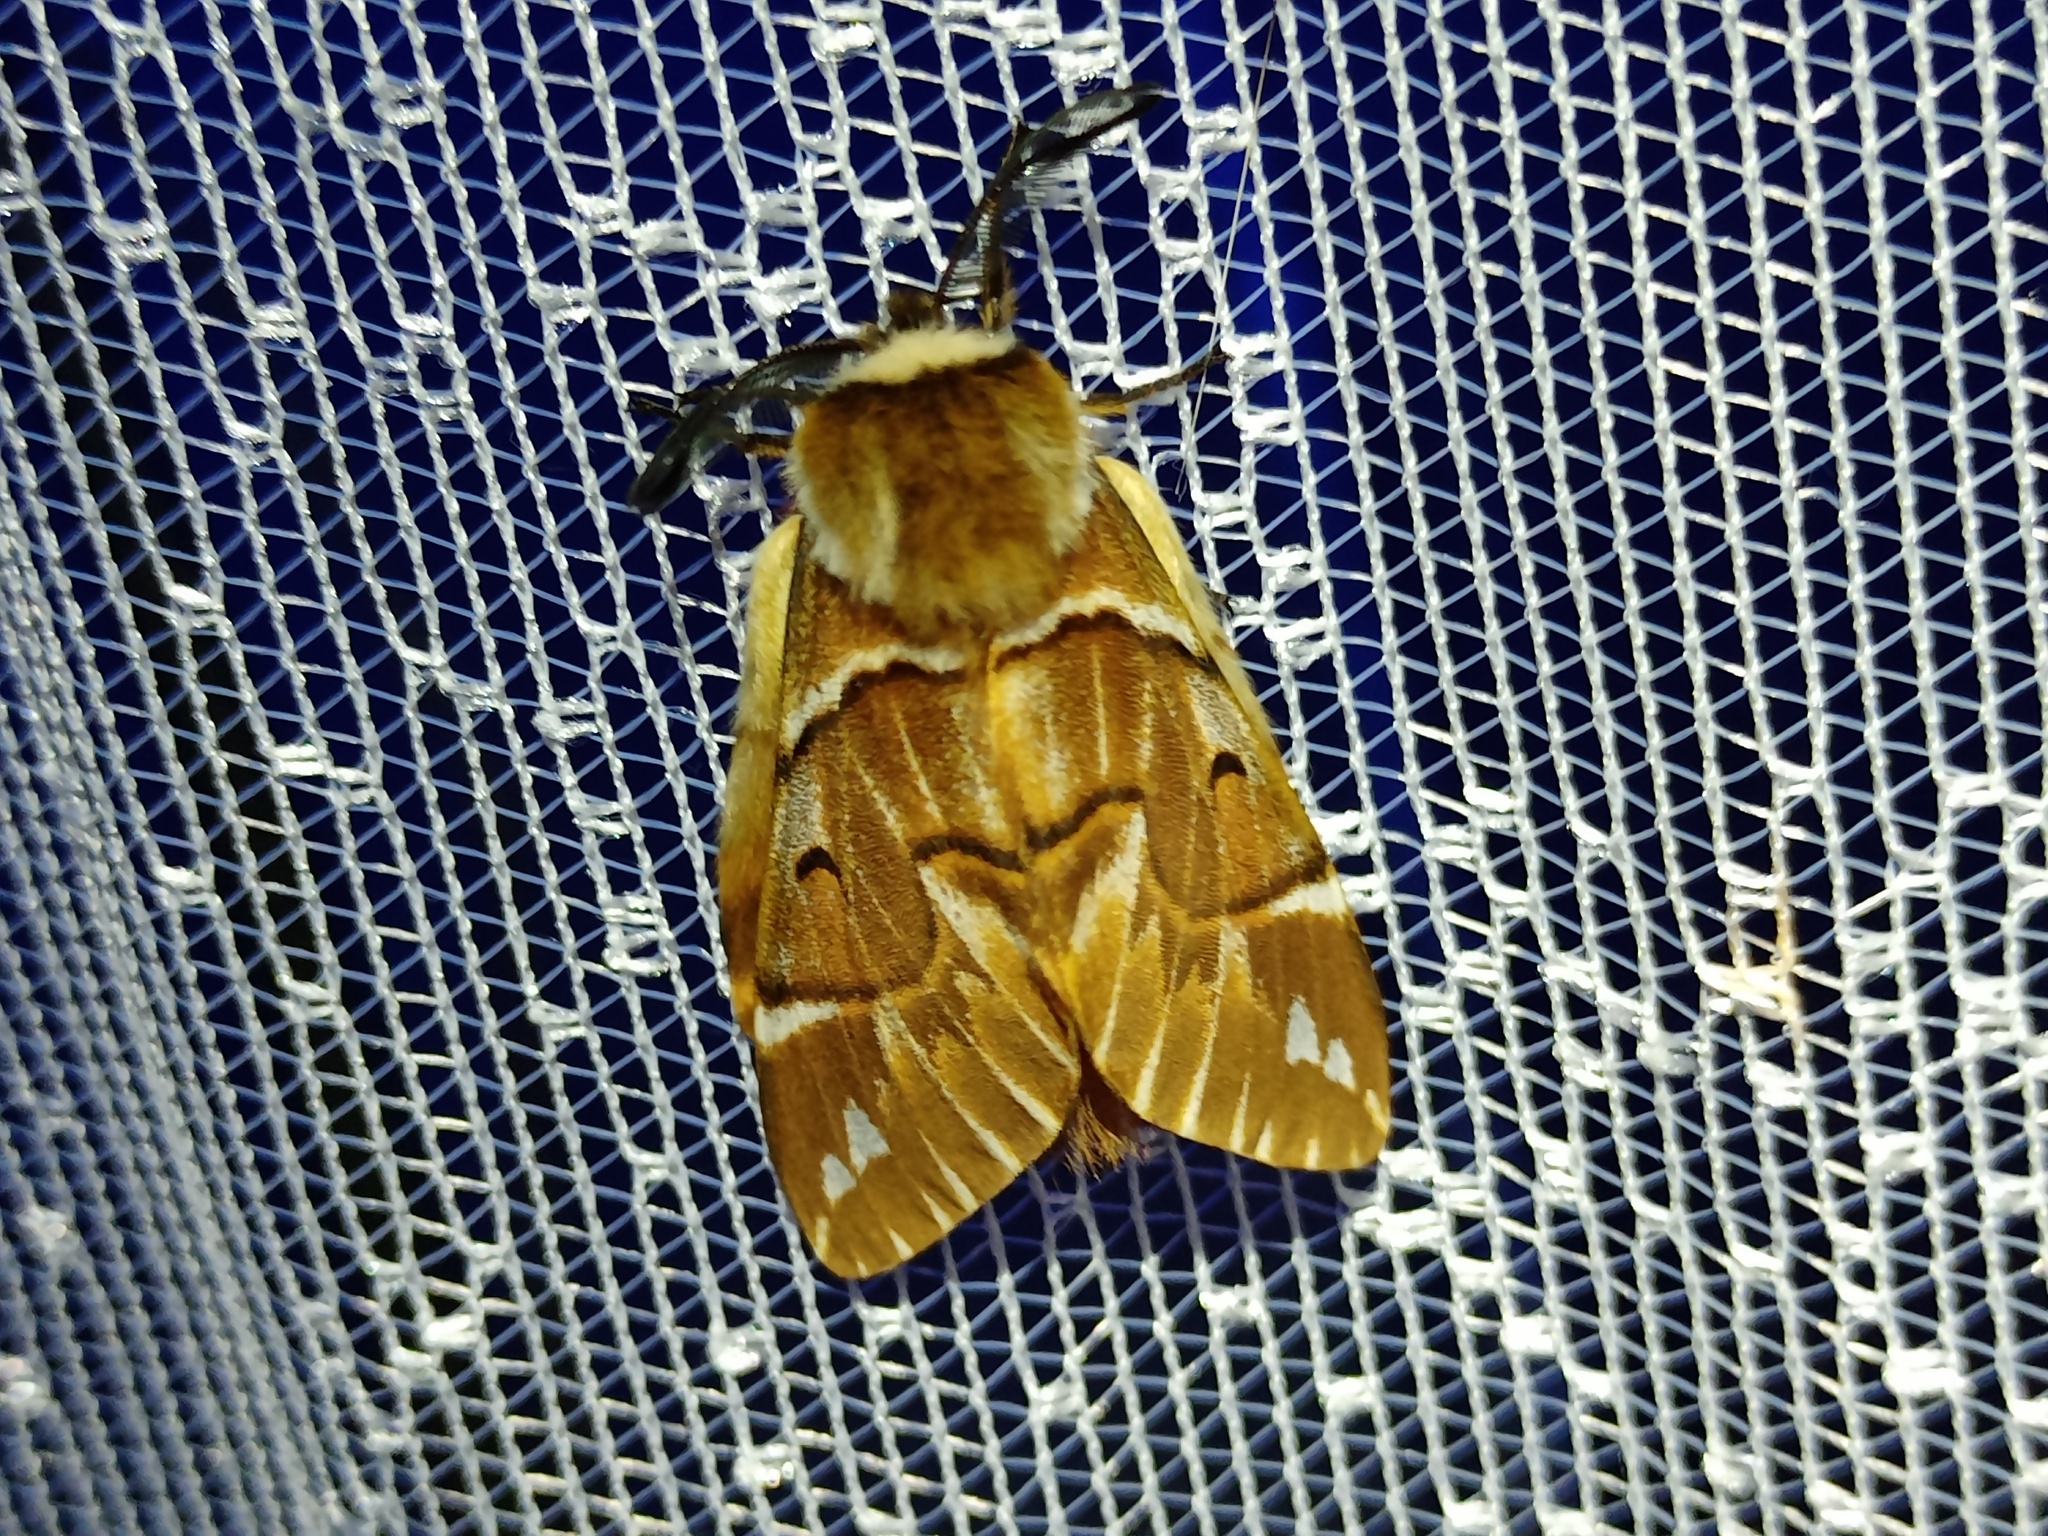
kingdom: Animalia
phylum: Arthropoda
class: Insecta
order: Lepidoptera
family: Endromidae
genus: Endromis
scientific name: Endromis versicolora
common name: Kentish glory
